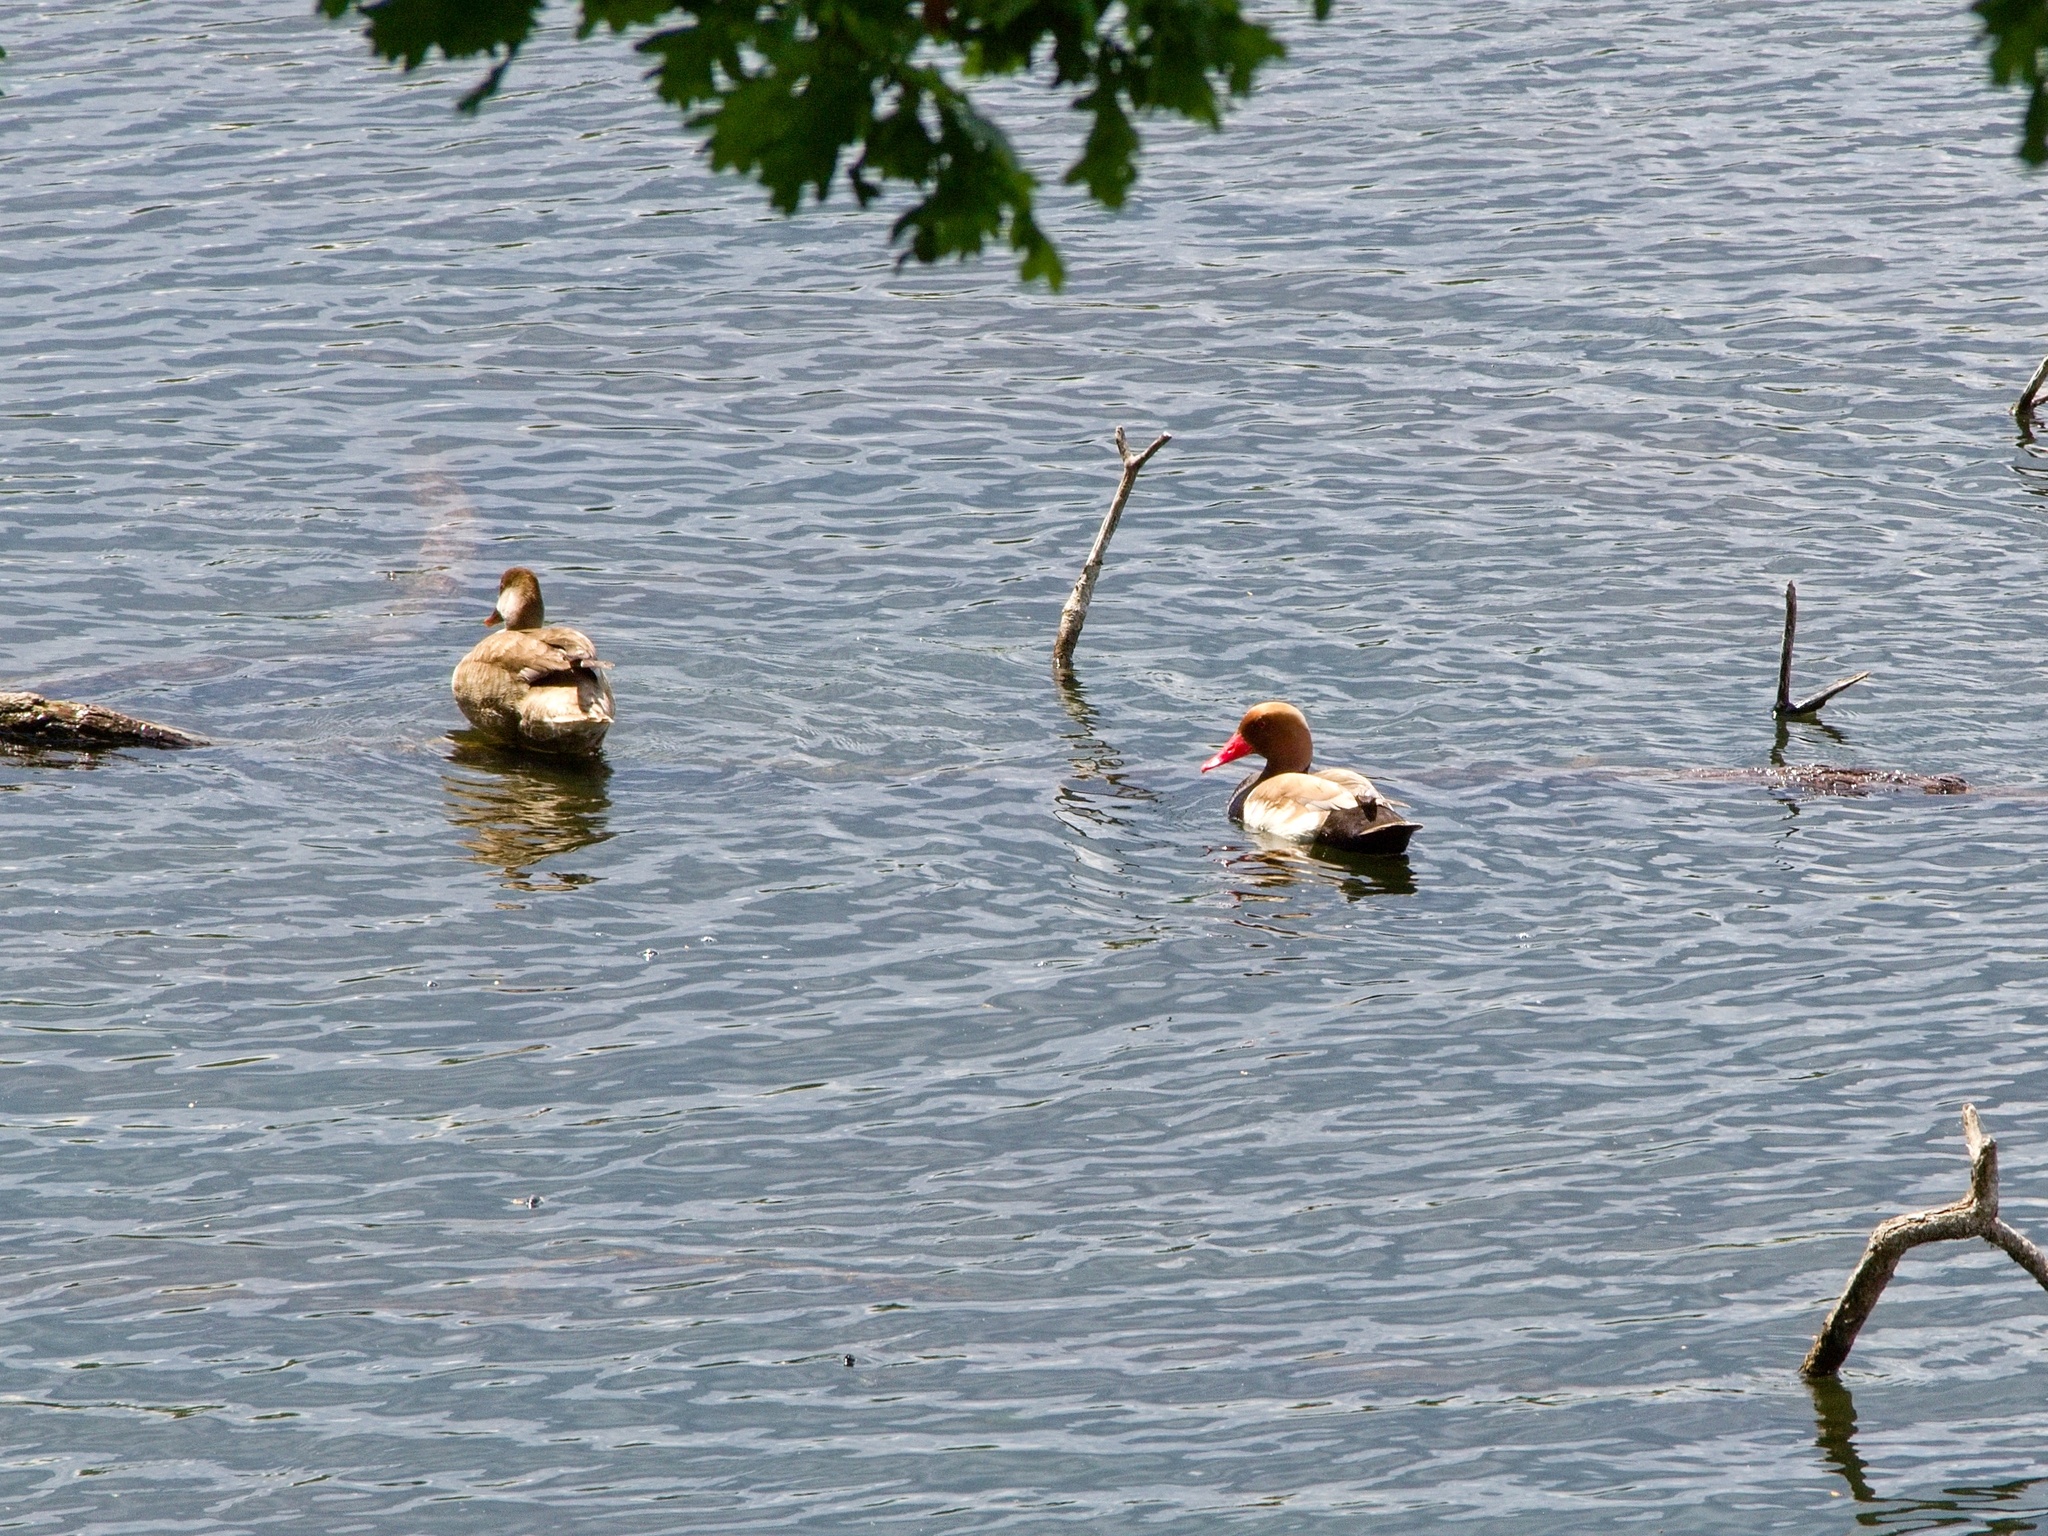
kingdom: Animalia
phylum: Chordata
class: Aves
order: Anseriformes
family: Anatidae
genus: Netta
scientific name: Netta rufina
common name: Red-crested pochard
